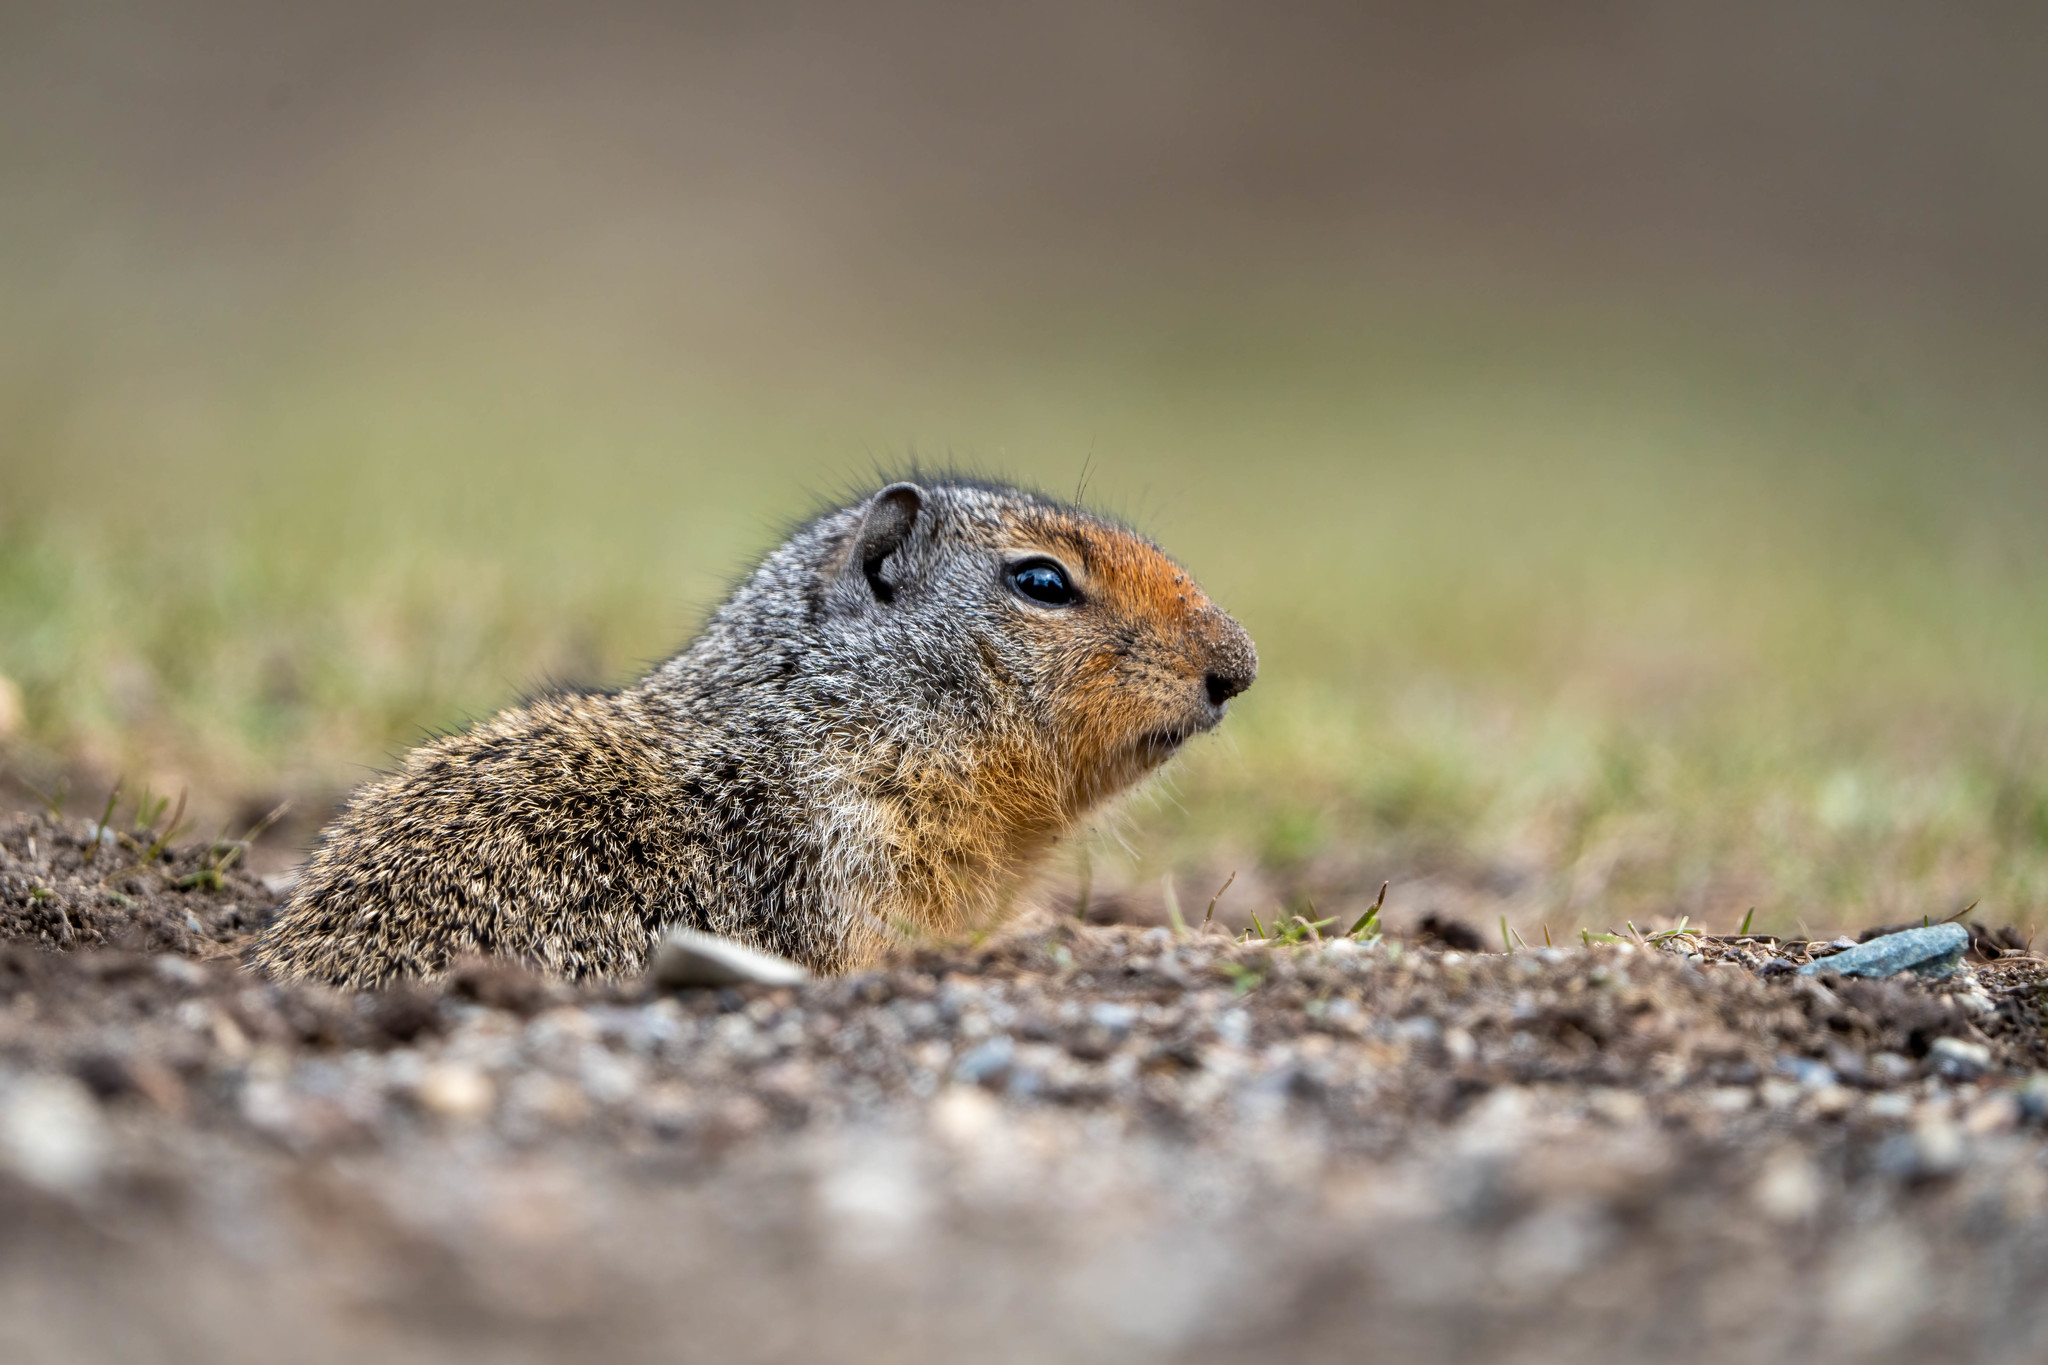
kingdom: Animalia
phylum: Chordata
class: Mammalia
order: Rodentia
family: Sciuridae
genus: Urocitellus
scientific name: Urocitellus columbianus
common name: Columbian ground squirrel
